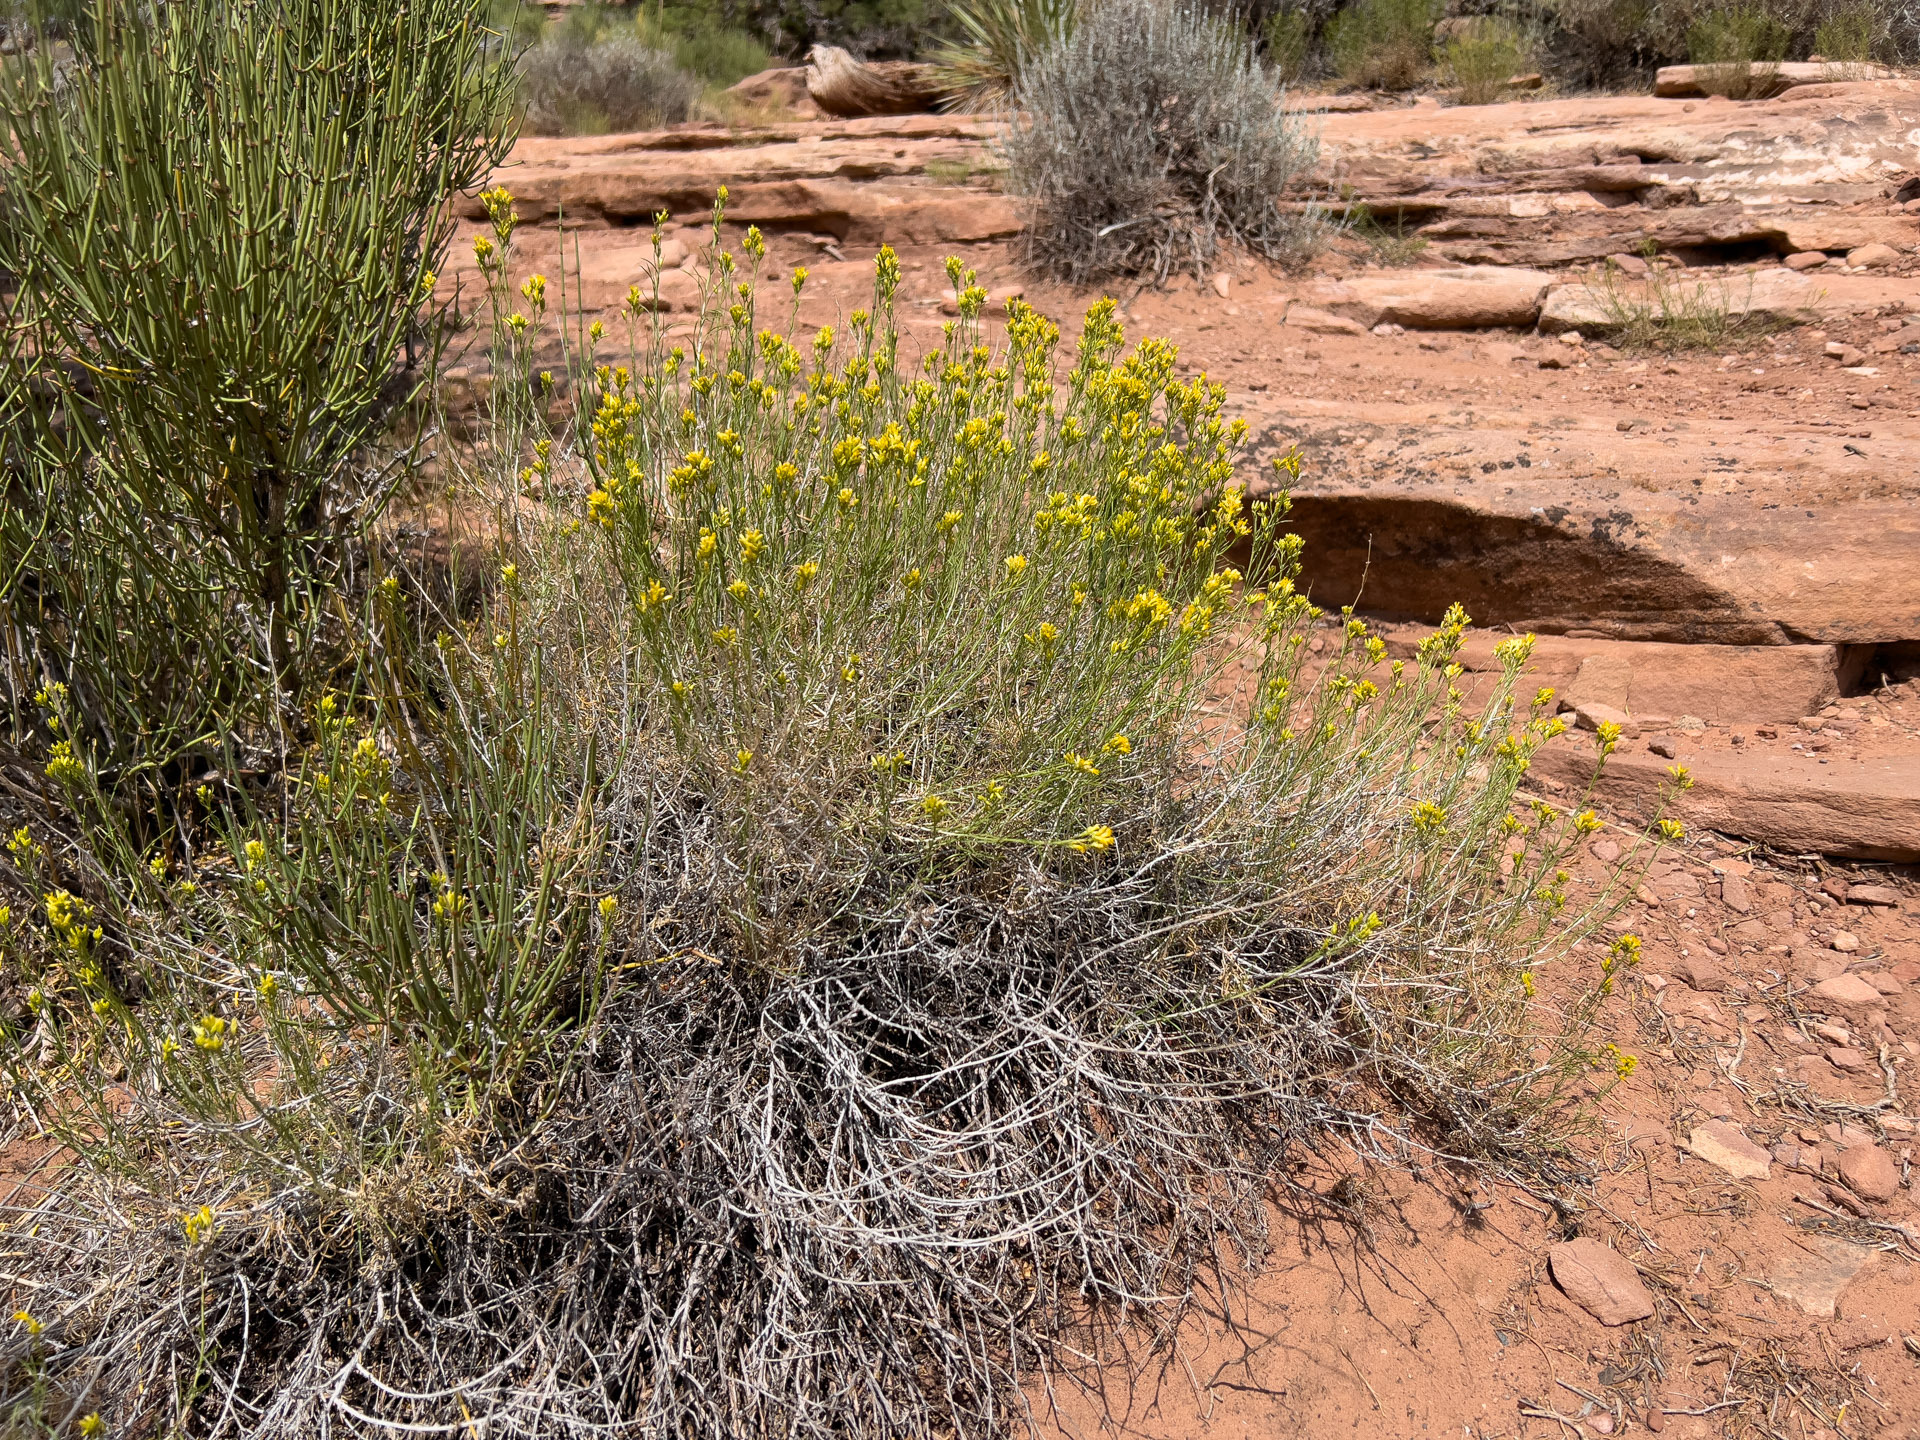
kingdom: Plantae
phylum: Tracheophyta
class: Magnoliopsida
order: Asterales
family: Asteraceae
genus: Ericameria
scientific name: Ericameria nauseosa
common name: Rubber rabbitbrush
